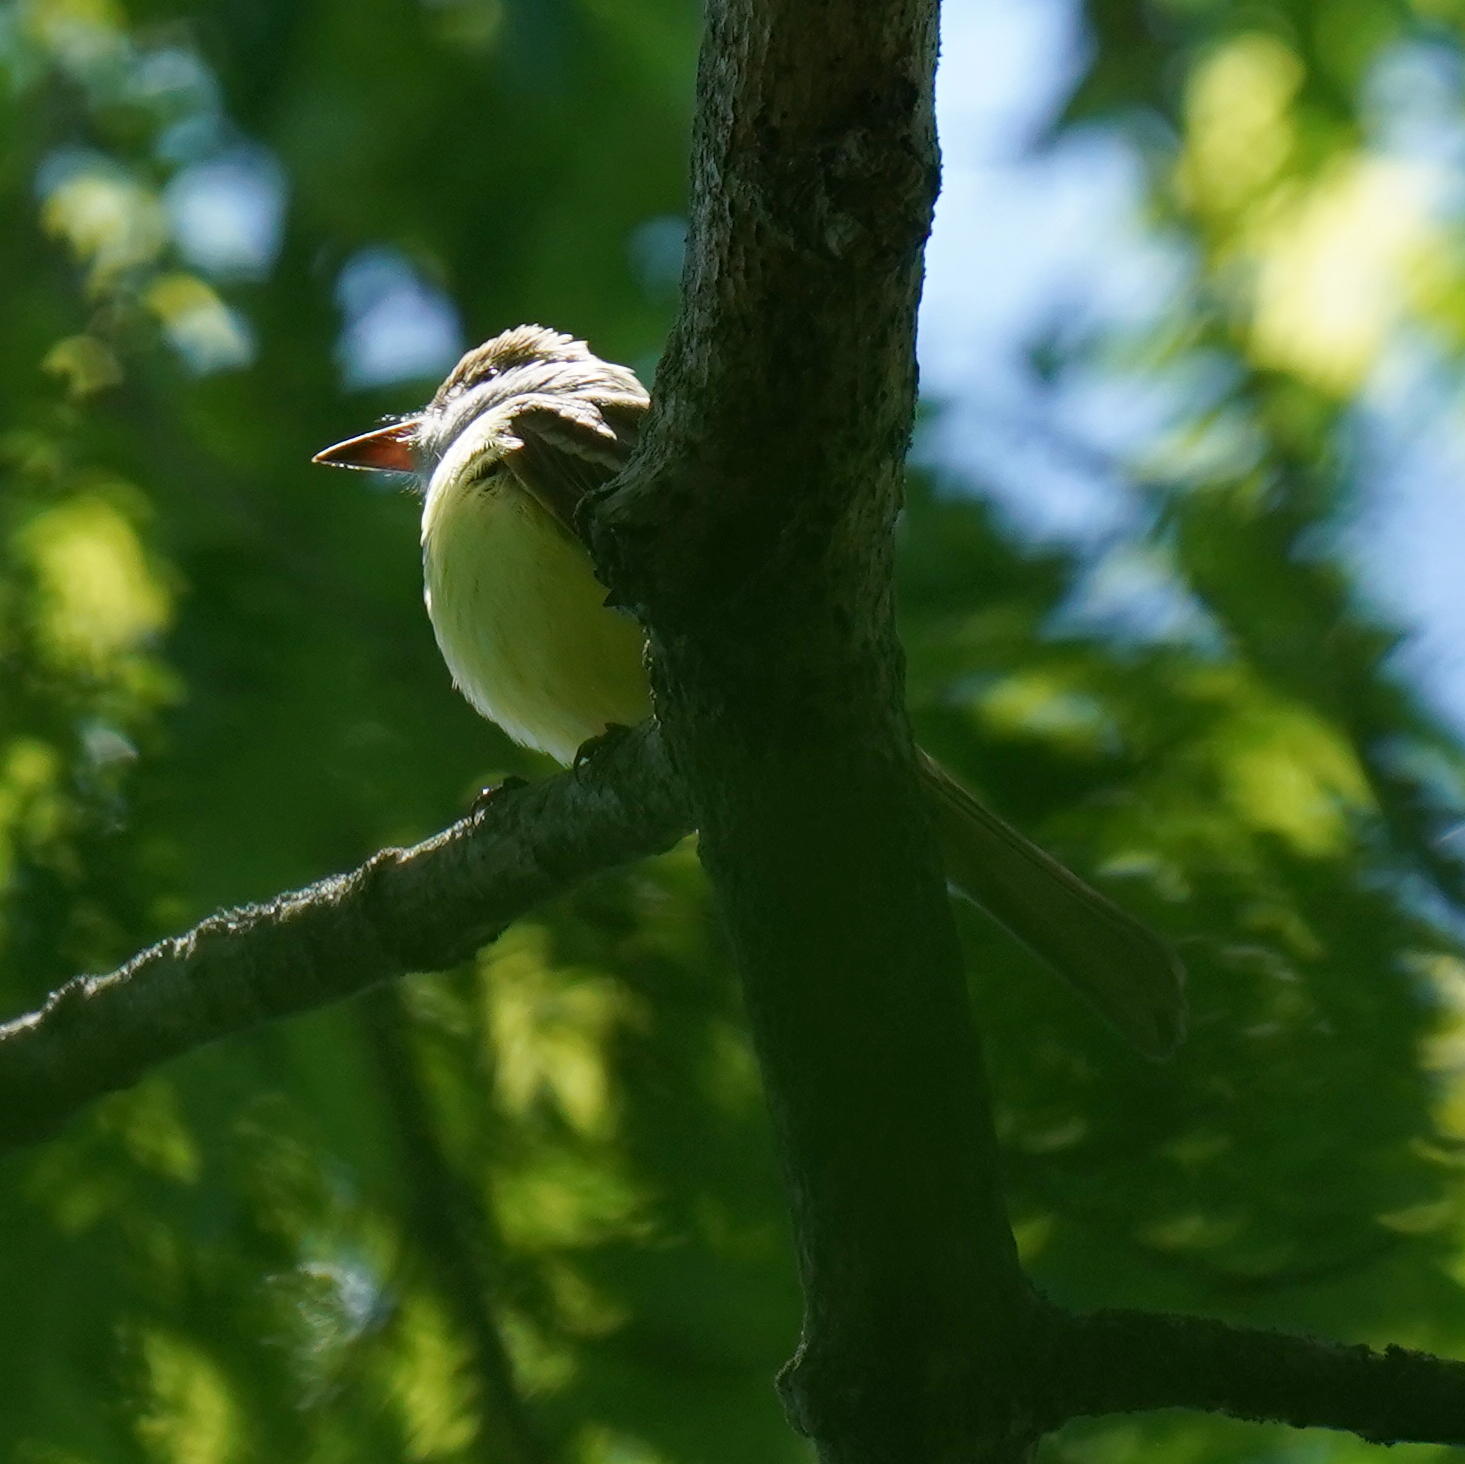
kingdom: Animalia
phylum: Chordata
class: Aves
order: Passeriformes
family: Tyrannidae
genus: Myiarchus
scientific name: Myiarchus crinitus
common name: Great crested flycatcher
